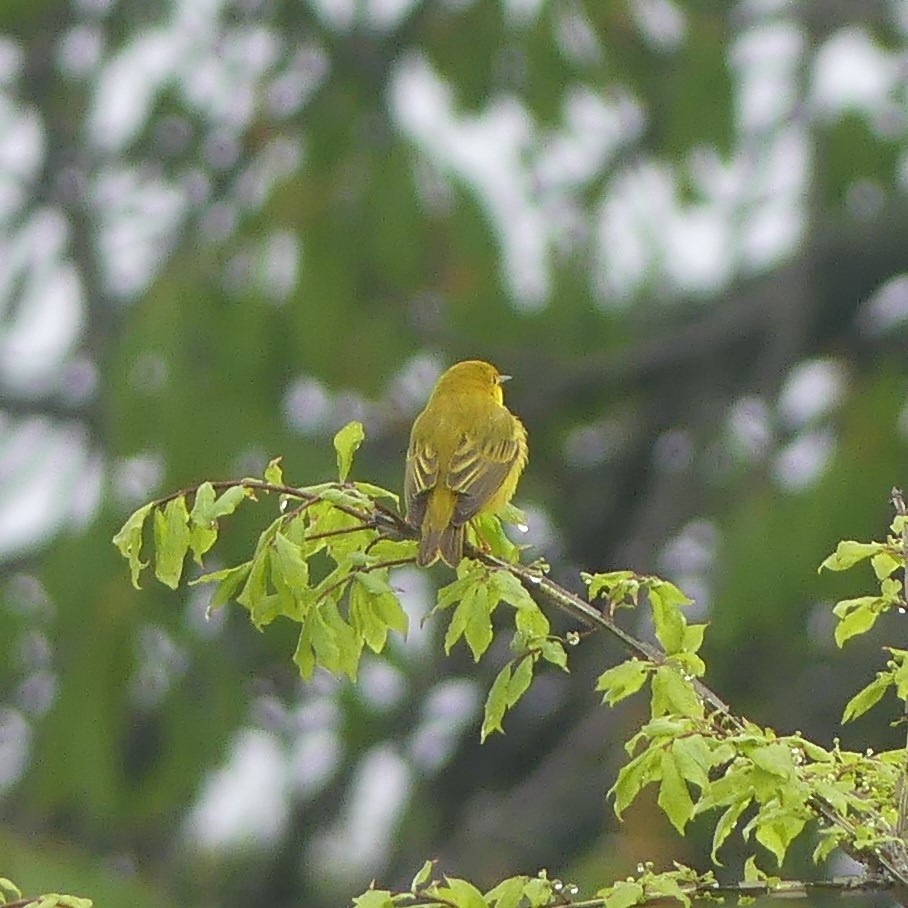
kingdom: Animalia
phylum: Chordata
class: Aves
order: Passeriformes
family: Parulidae
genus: Setophaga
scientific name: Setophaga petechia
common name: Yellow warbler
